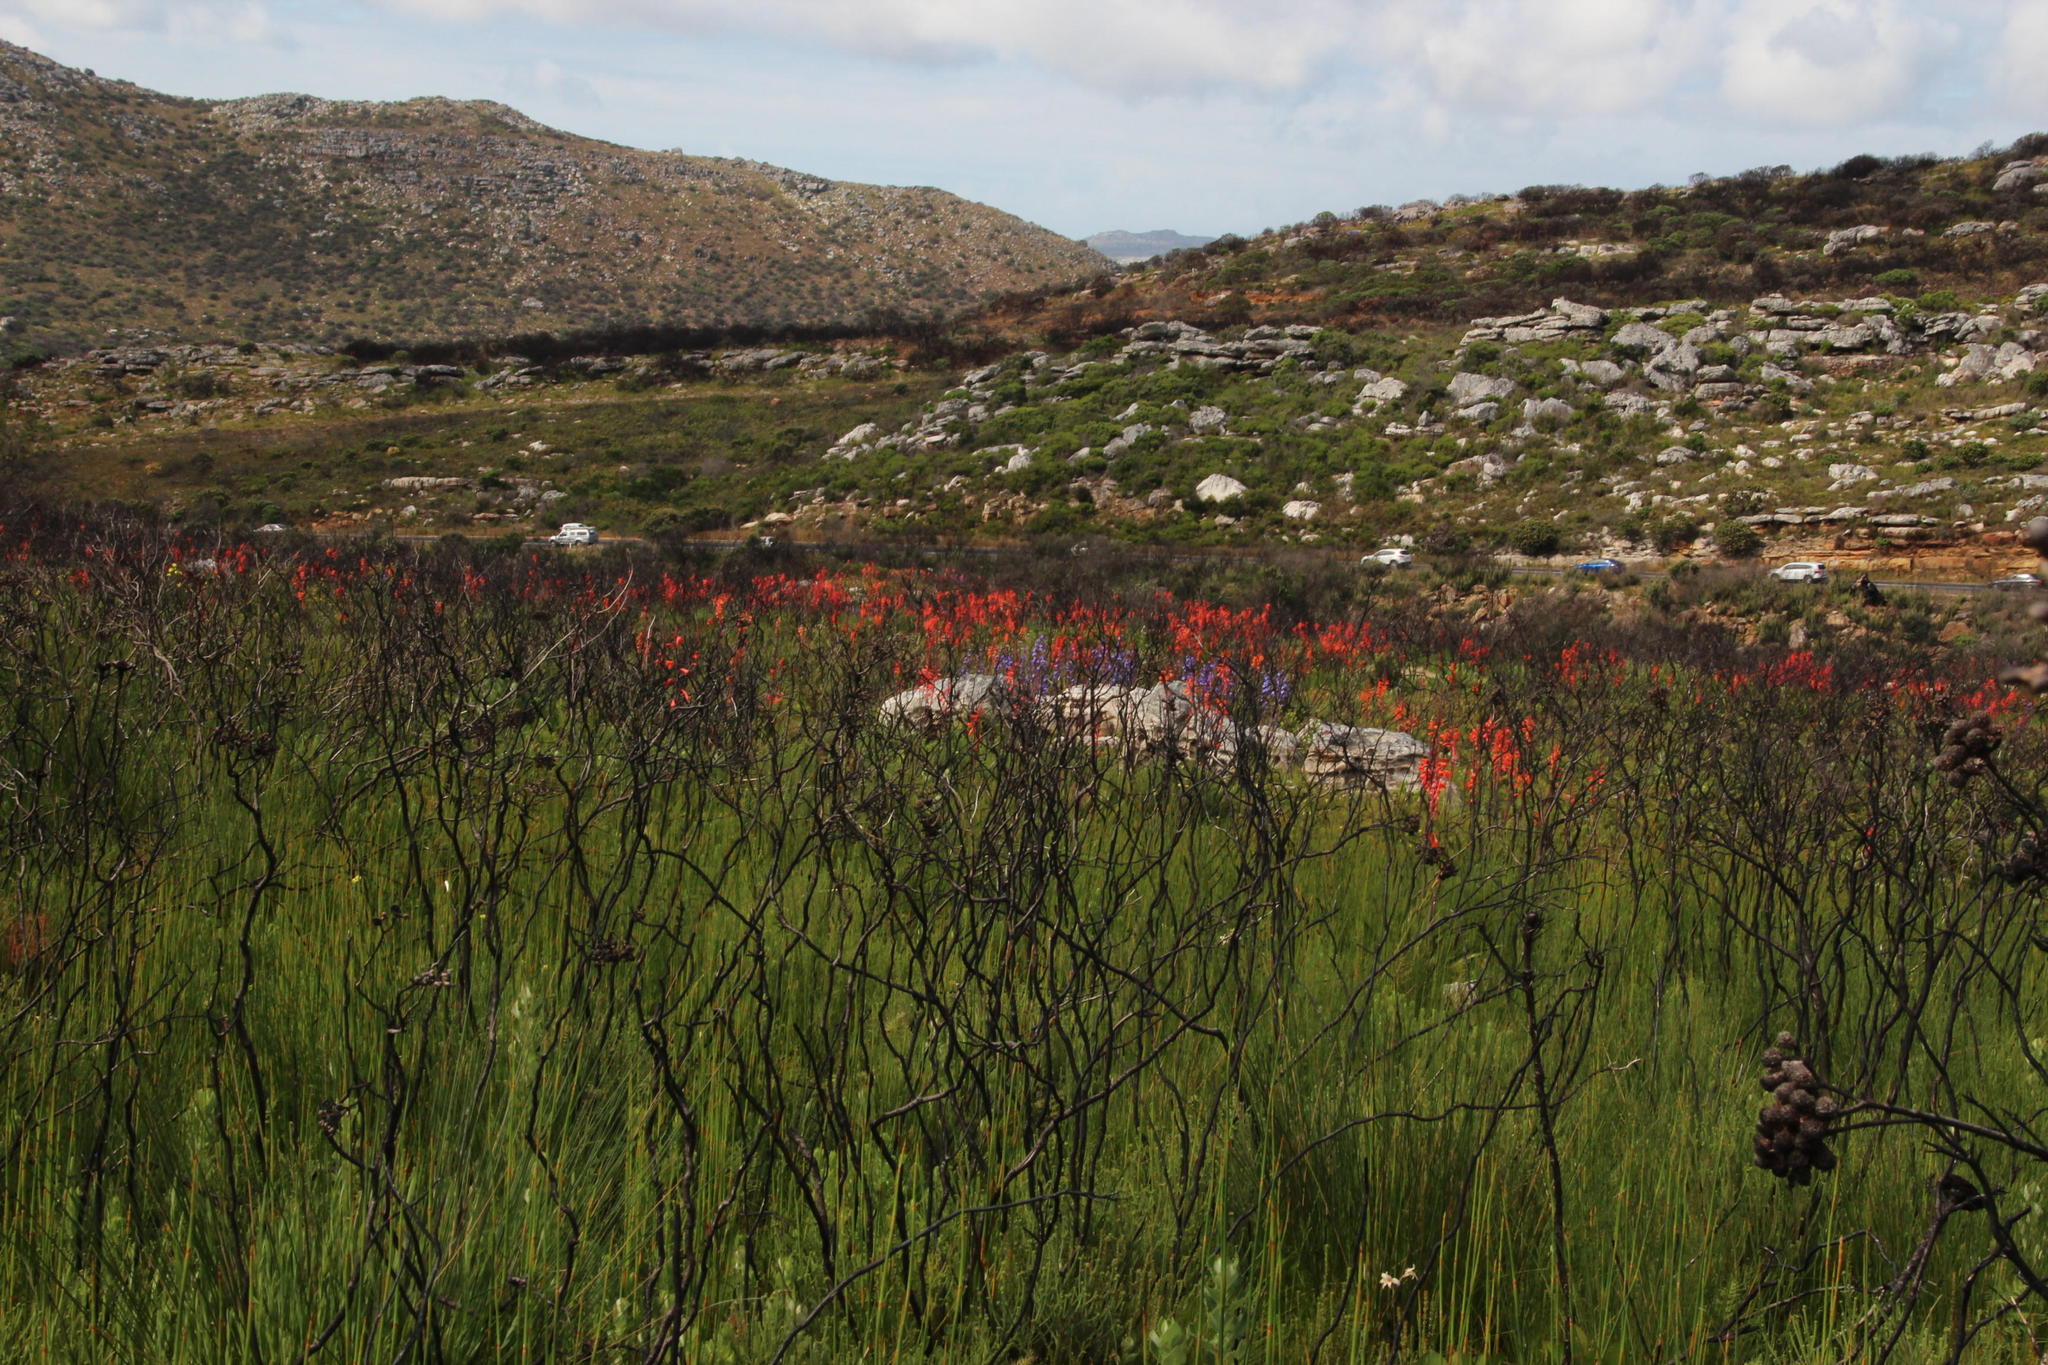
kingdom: Plantae
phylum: Tracheophyta
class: Liliopsida
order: Asparagales
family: Iridaceae
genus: Watsonia
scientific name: Watsonia tabularis
